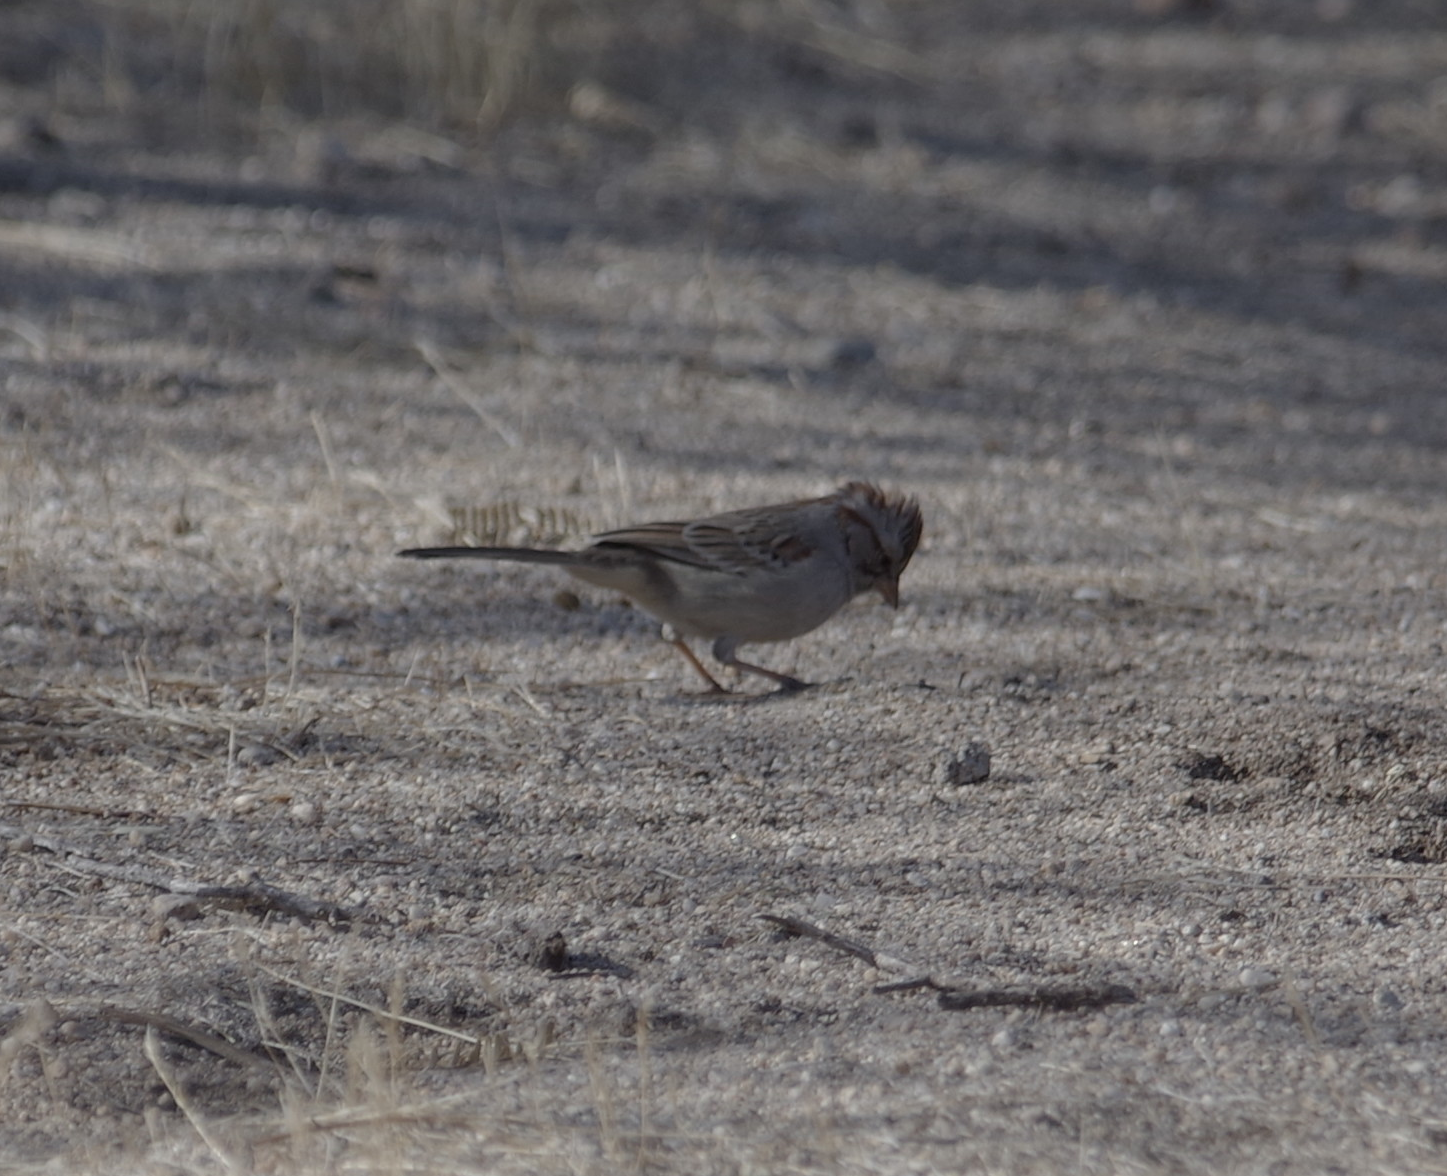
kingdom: Animalia
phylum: Chordata
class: Aves
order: Passeriformes
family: Passerellidae
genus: Peucaea
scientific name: Peucaea carpalis
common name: Rufous-winged sparrow
